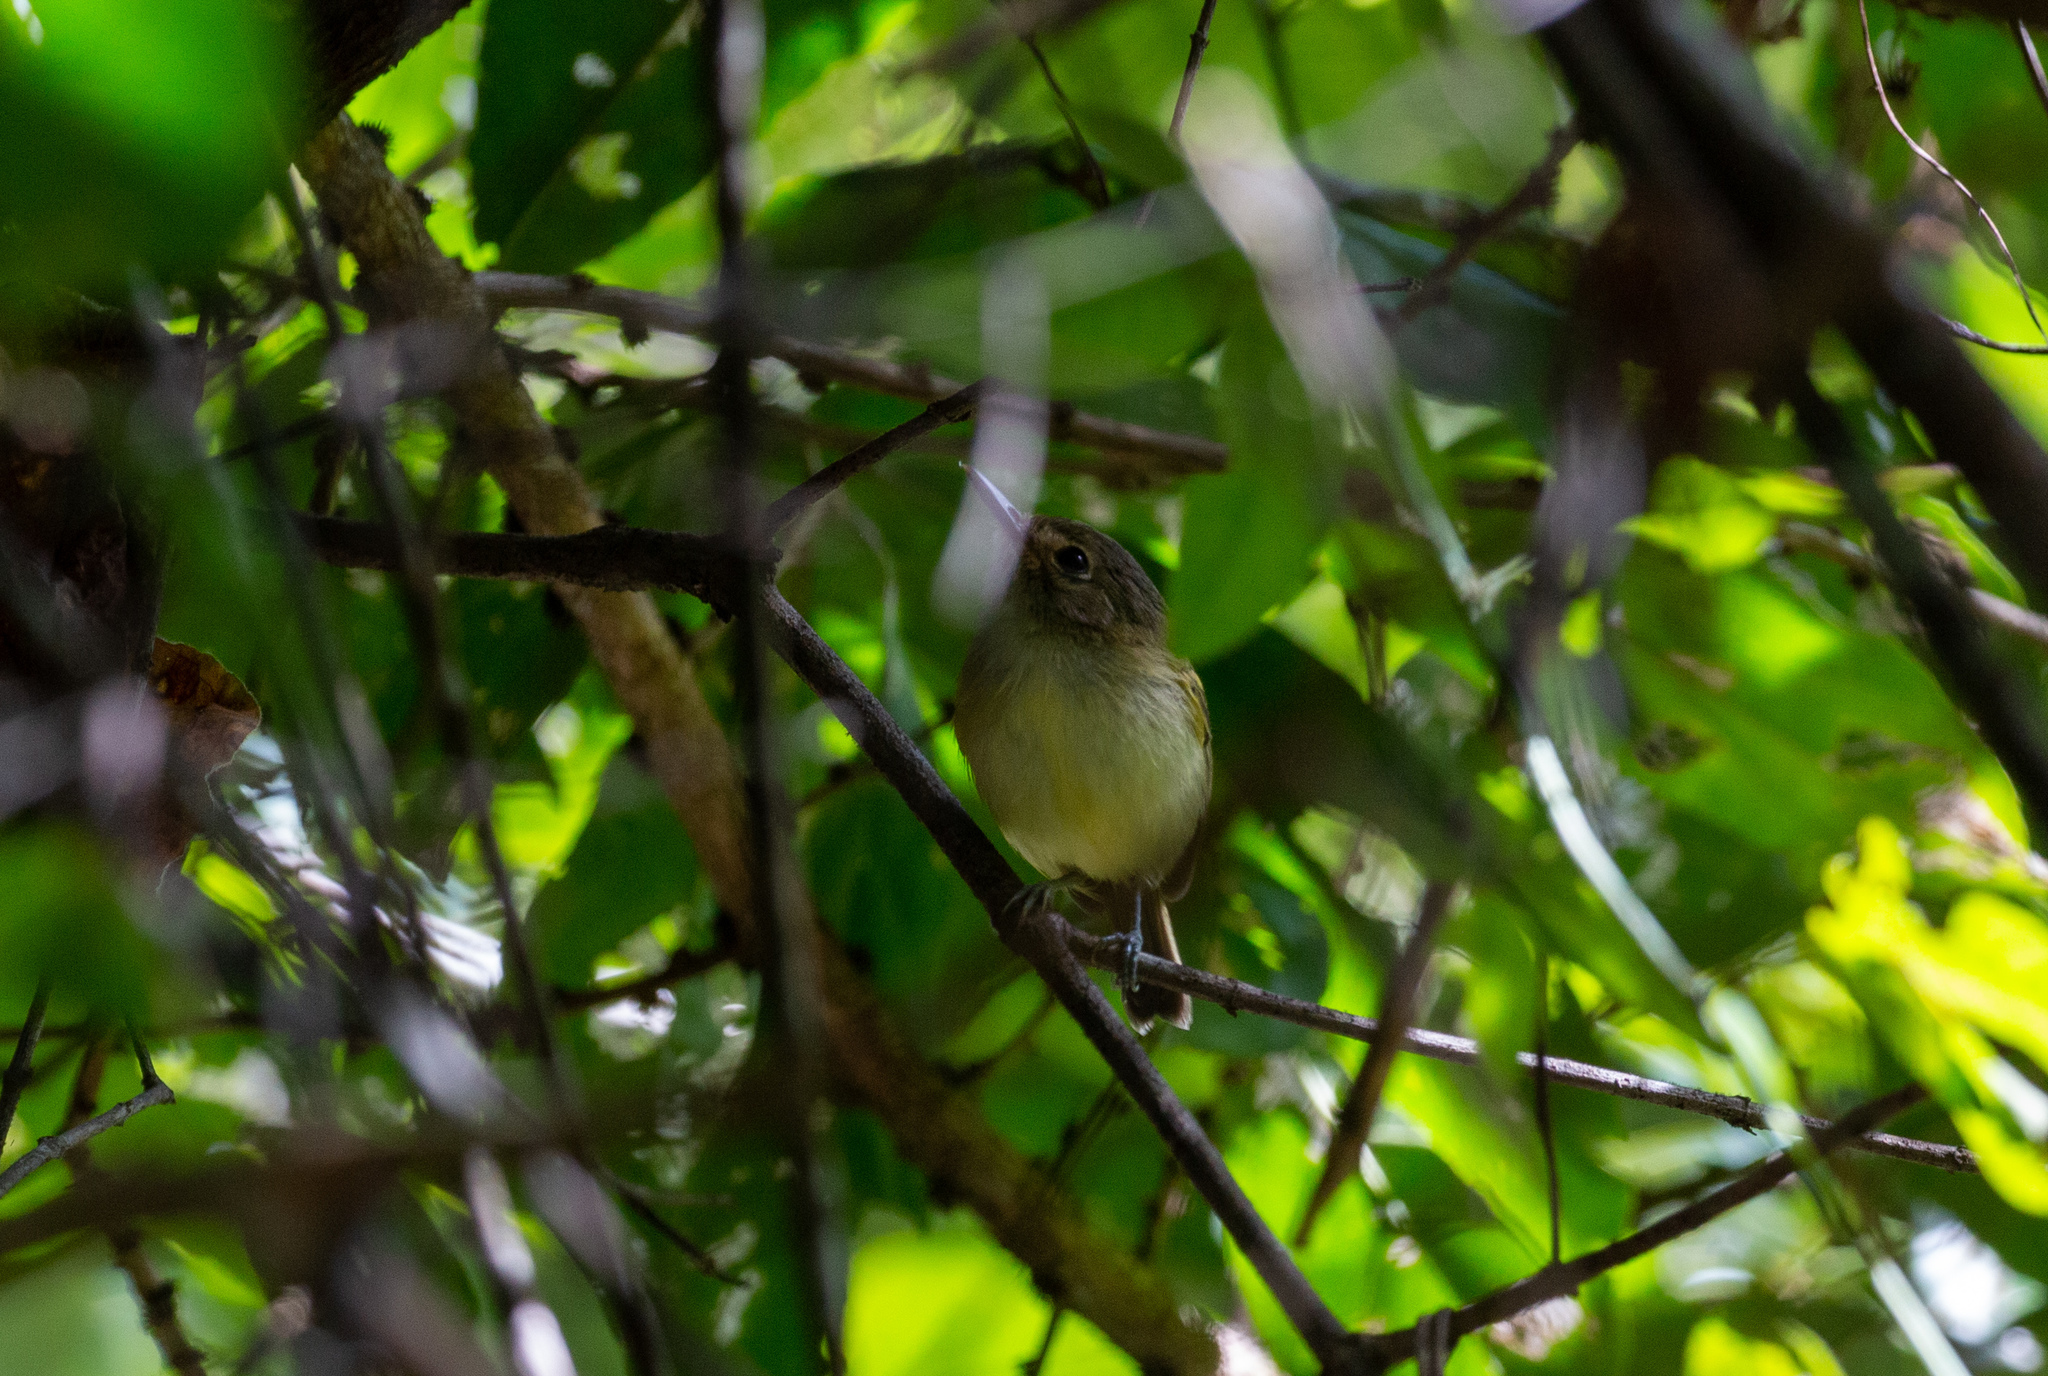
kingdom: Animalia
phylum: Chordata
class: Aves
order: Passeriformes
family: Tyrannidae
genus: Poecilotriccus
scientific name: Poecilotriccus fumifrons
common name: Smoky-fronted tody-flycatcher
